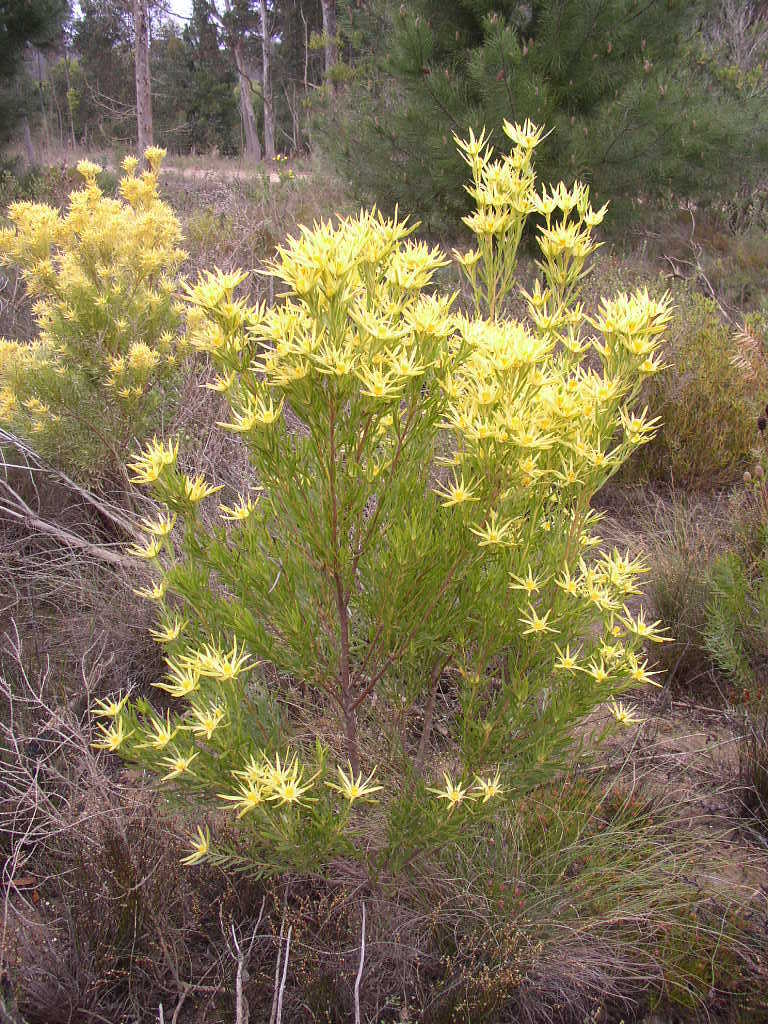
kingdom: Plantae
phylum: Tracheophyta
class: Magnoliopsida
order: Proteales
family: Proteaceae
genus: Leucadendron
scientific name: Leucadendron xanthoconus
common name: Sickle-leaf conebush
